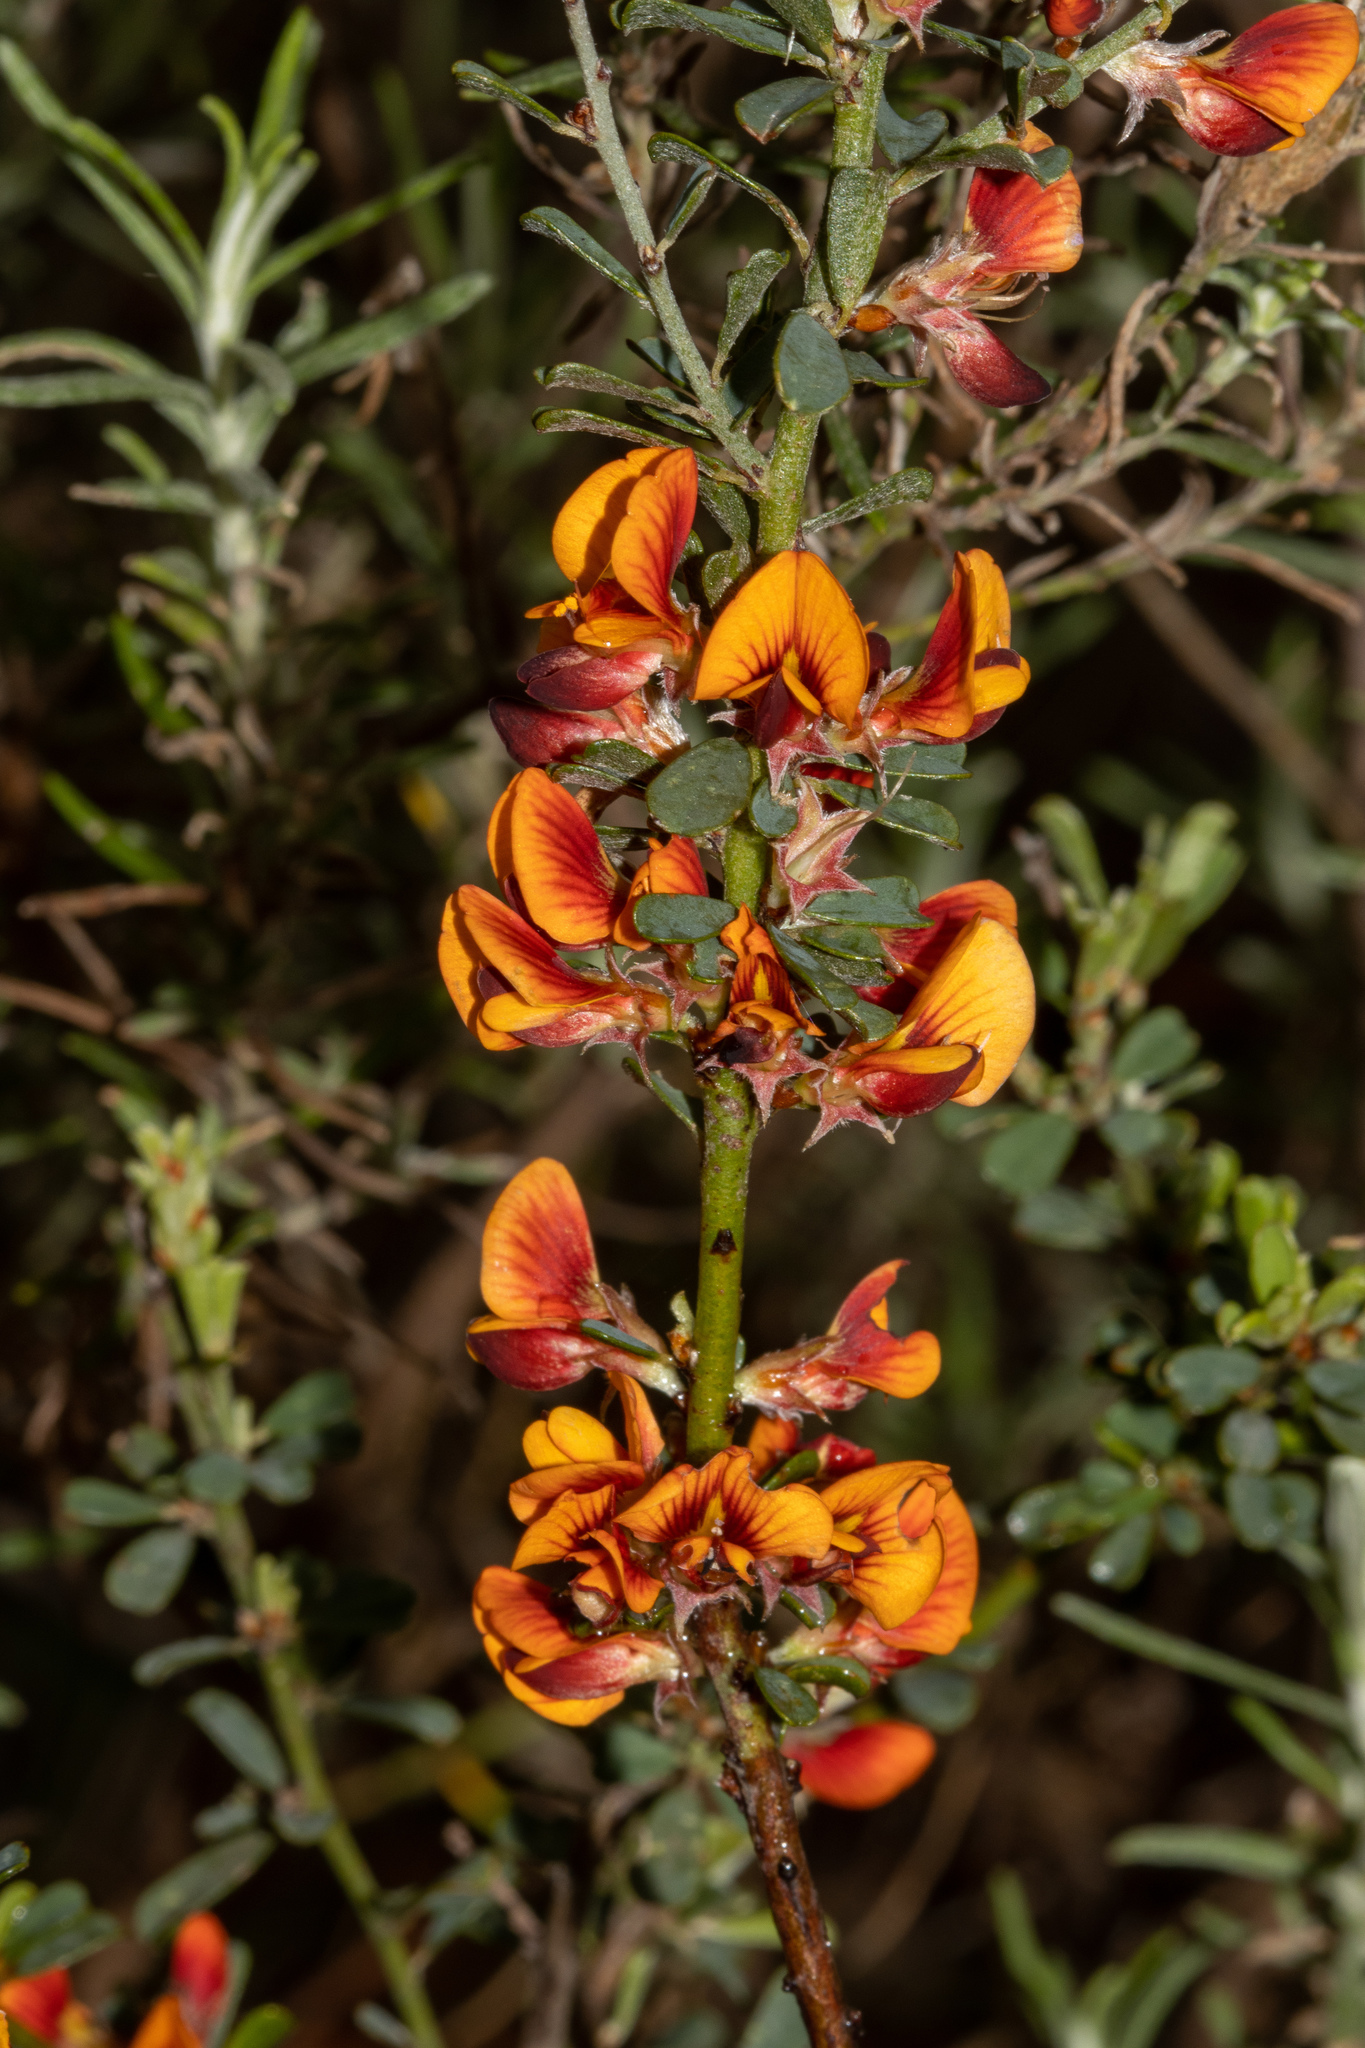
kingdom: Plantae
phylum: Tracheophyta
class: Magnoliopsida
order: Fabales
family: Fabaceae
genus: Pultenaea
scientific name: Pultenaea largiflorens
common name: Twiggy bush-pea
